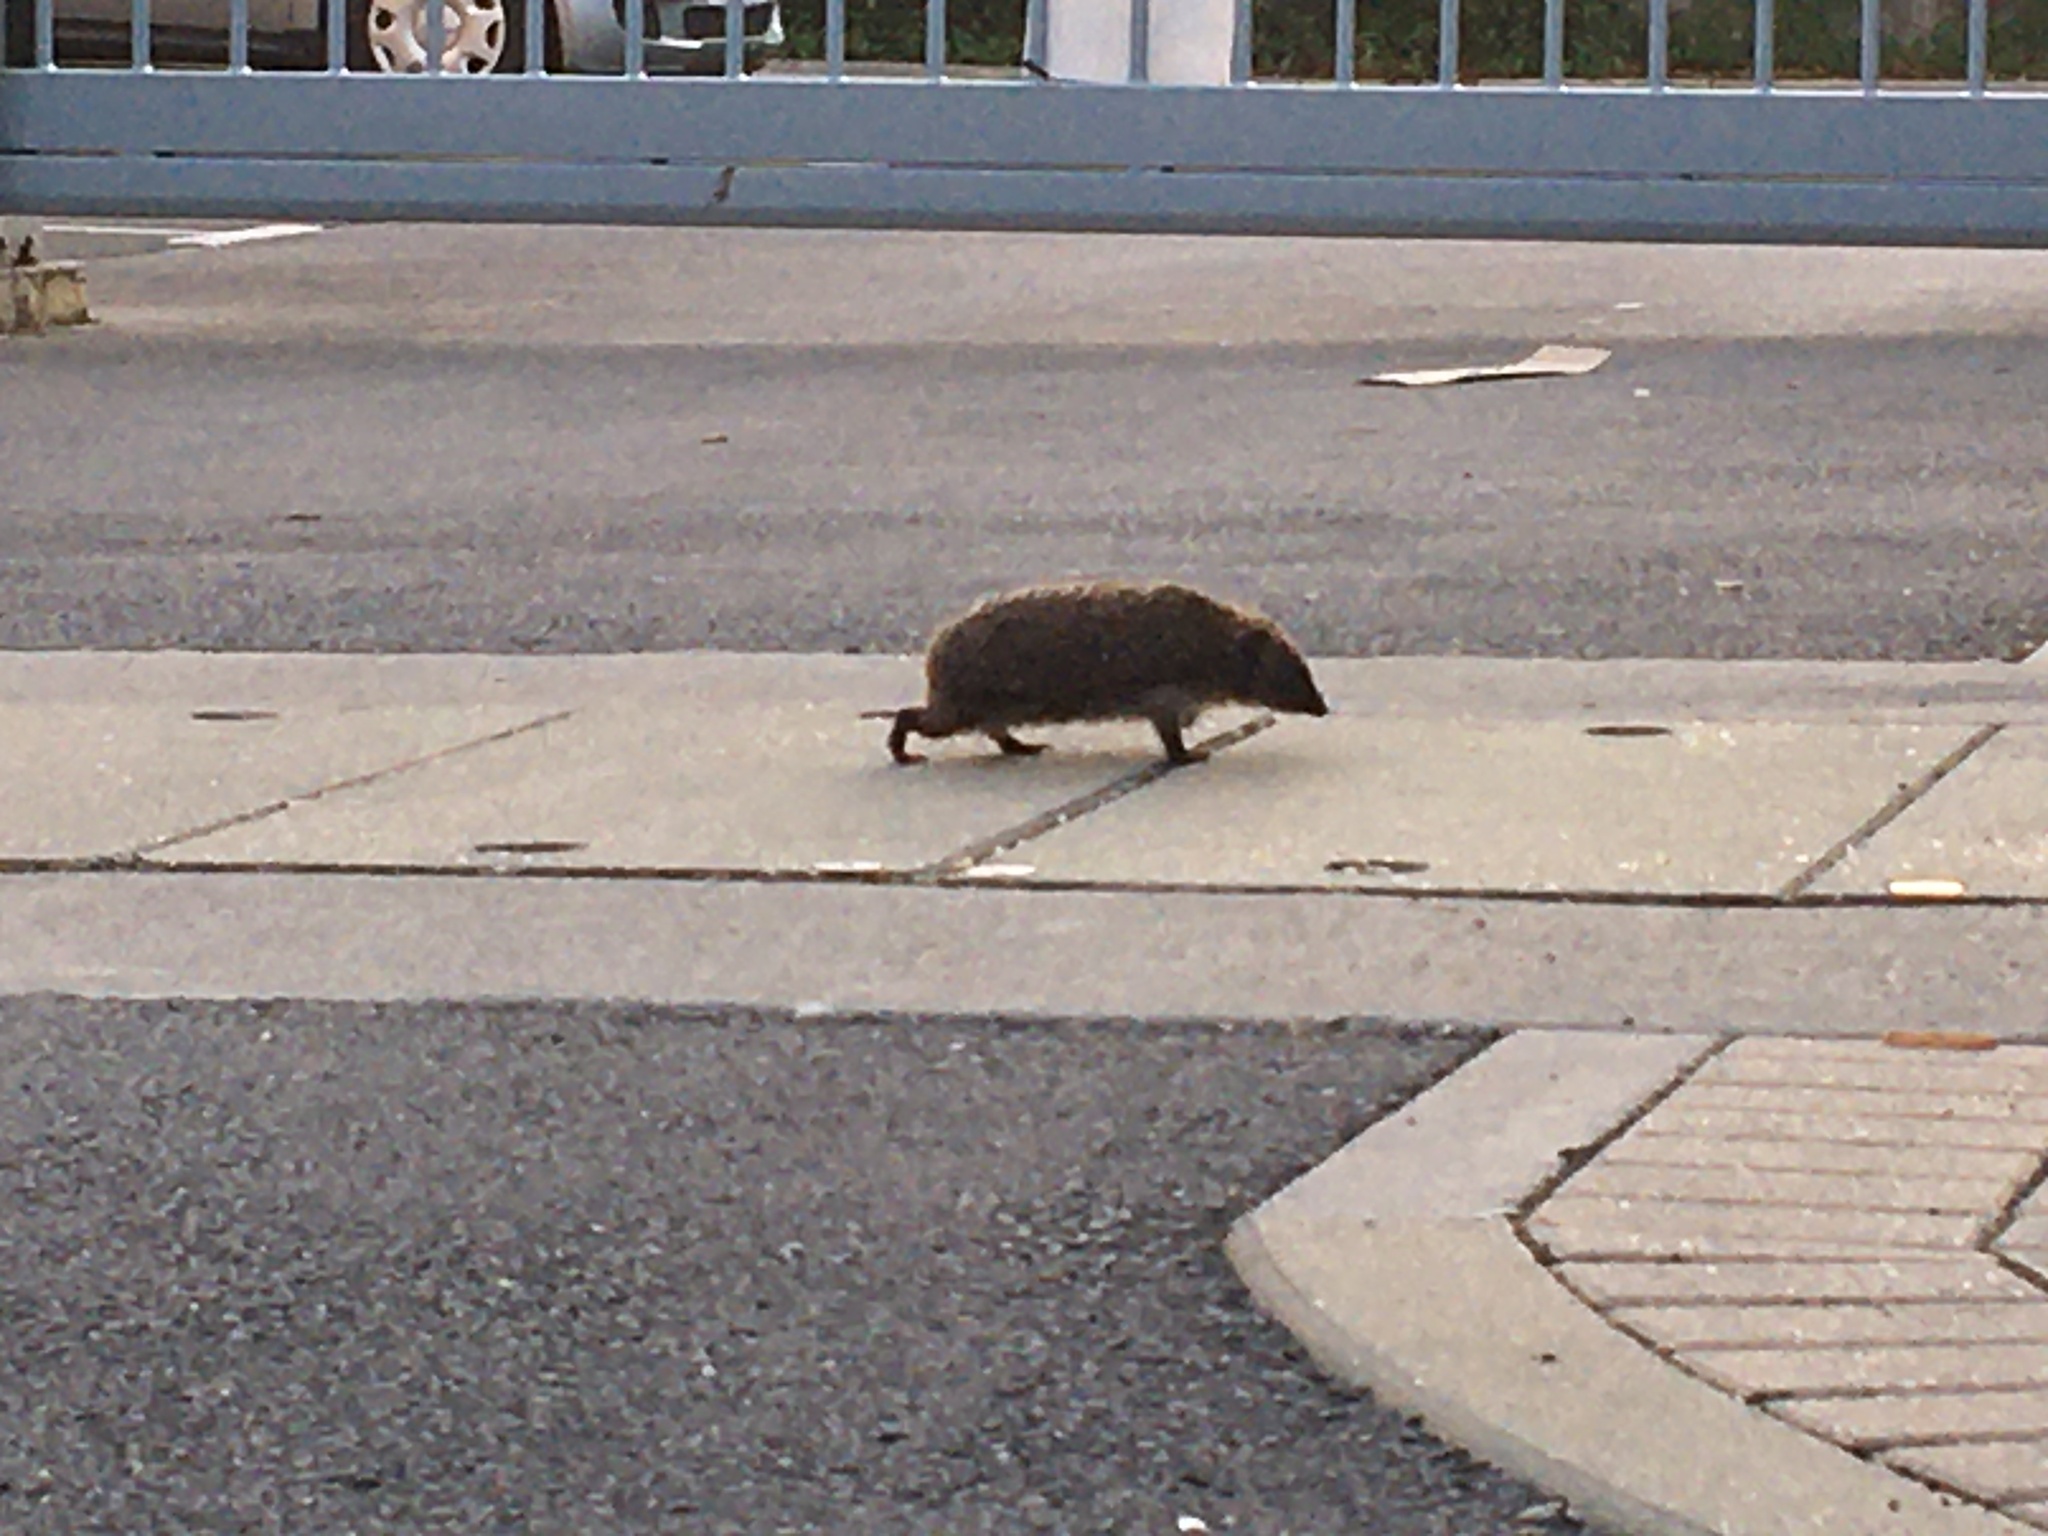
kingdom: Animalia
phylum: Chordata
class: Mammalia
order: Erinaceomorpha
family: Erinaceidae
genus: Erinaceus
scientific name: Erinaceus europaeus
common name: West european hedgehog
